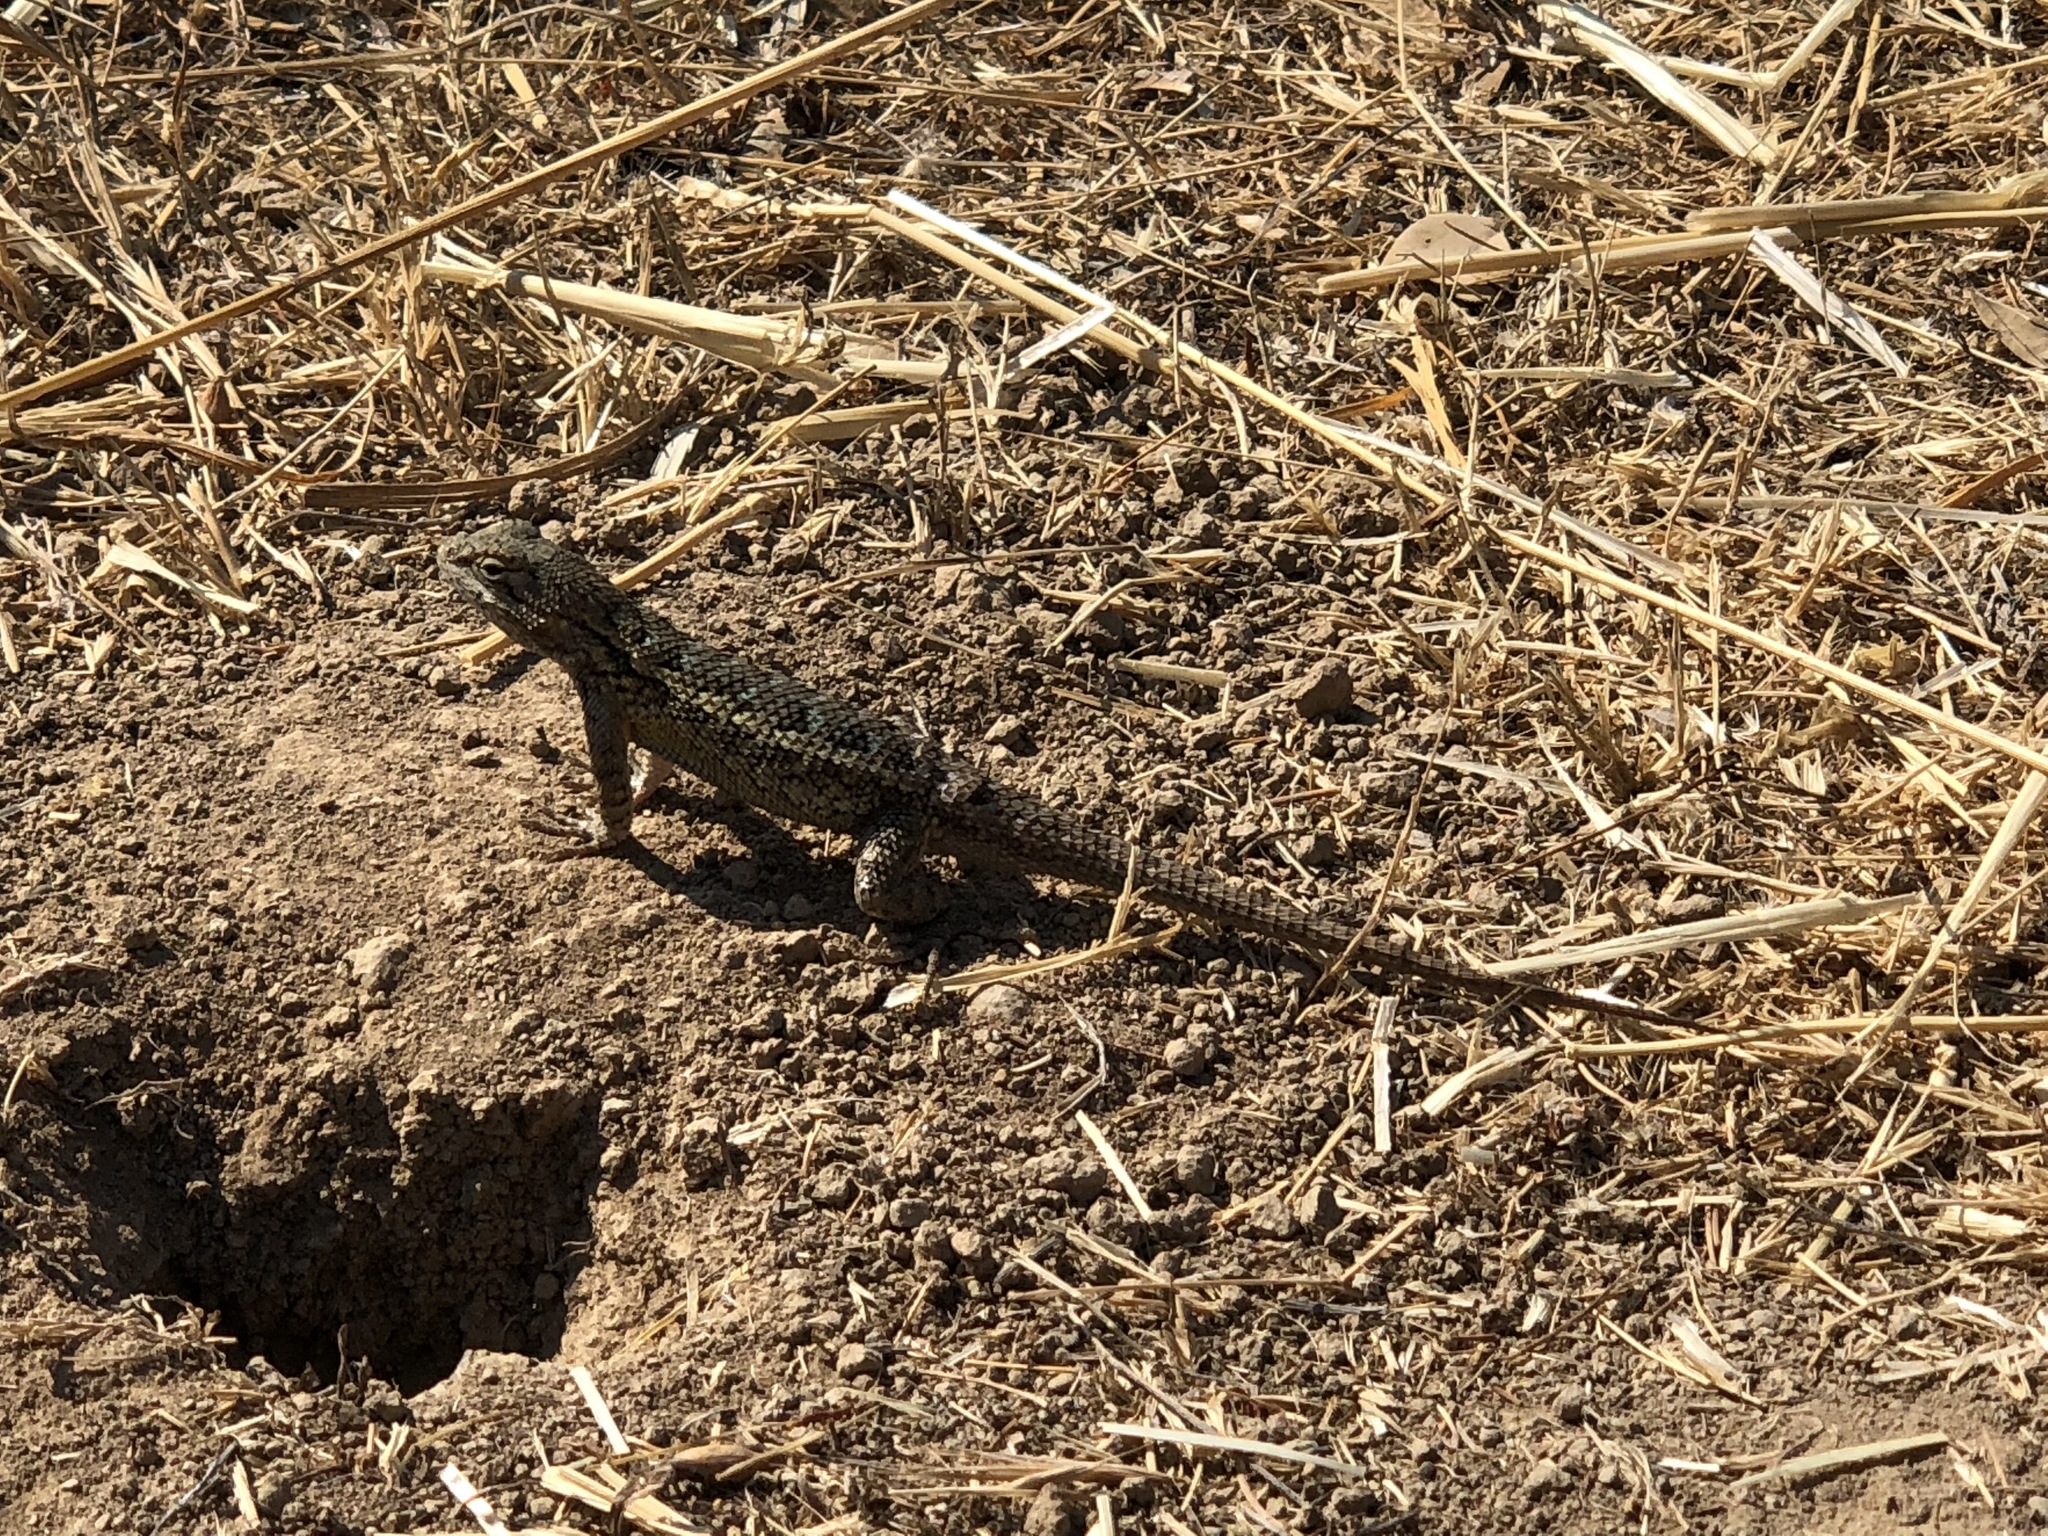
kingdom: Animalia
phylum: Chordata
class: Squamata
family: Phrynosomatidae
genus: Sceloporus
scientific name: Sceloporus occidentalis
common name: Western fence lizard
